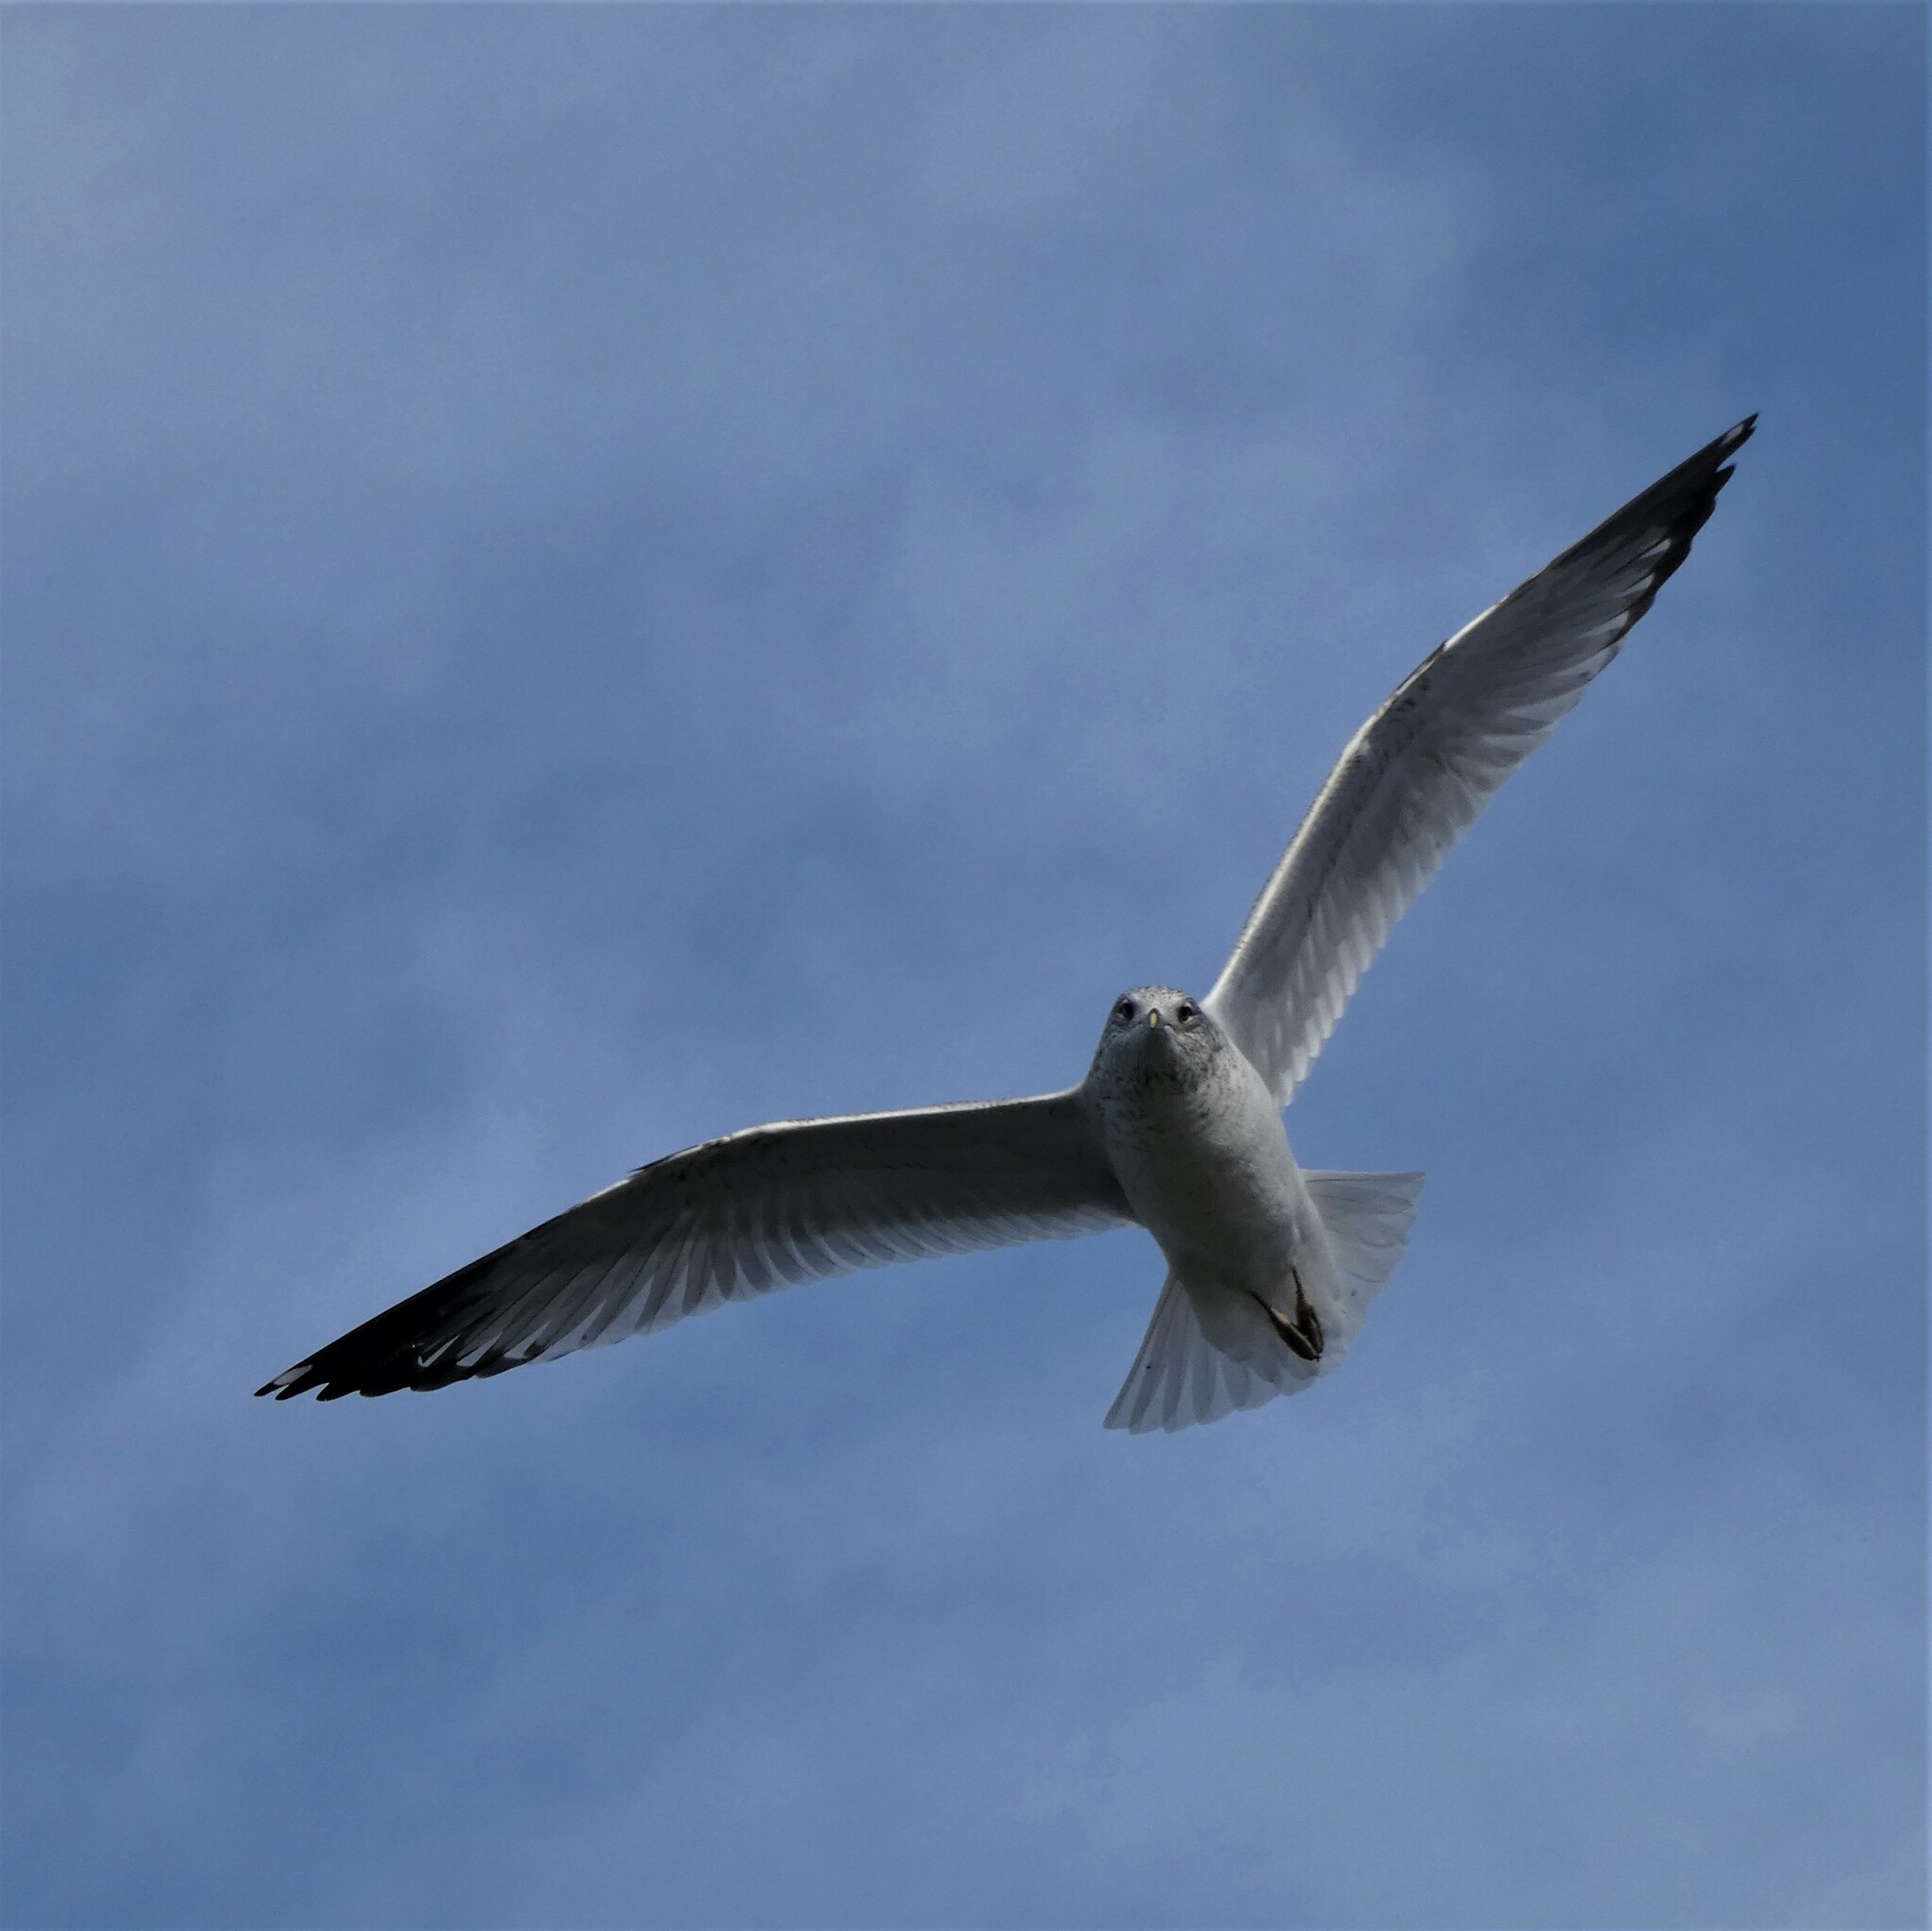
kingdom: Animalia
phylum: Chordata
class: Aves
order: Charadriiformes
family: Laridae
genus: Larus
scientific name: Larus delawarensis
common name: Ring-billed gull
